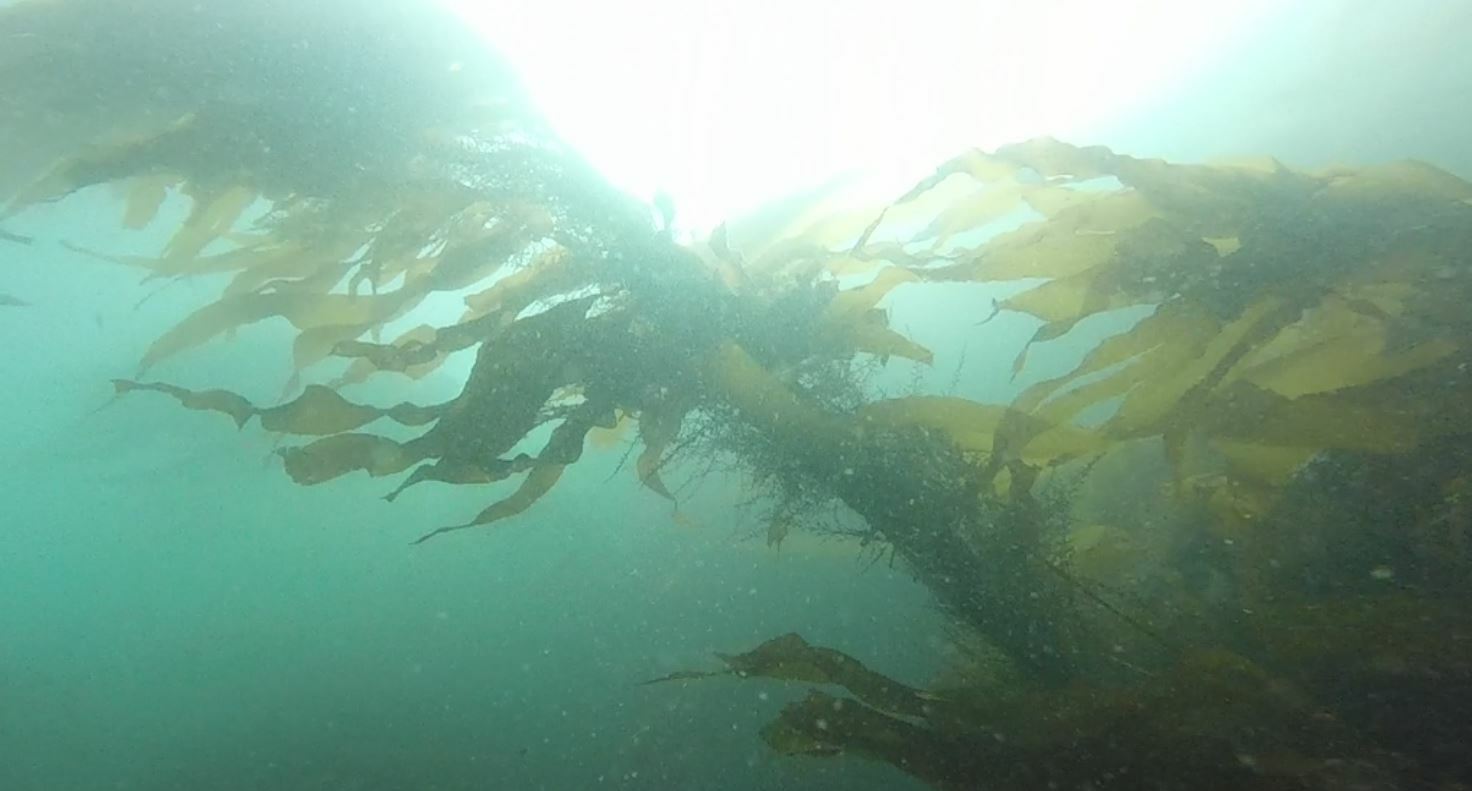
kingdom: Chromista
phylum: Ochrophyta
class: Phaeophyceae
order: Laminariales
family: Laminariaceae
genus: Macrocystis
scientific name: Macrocystis pyrifera
